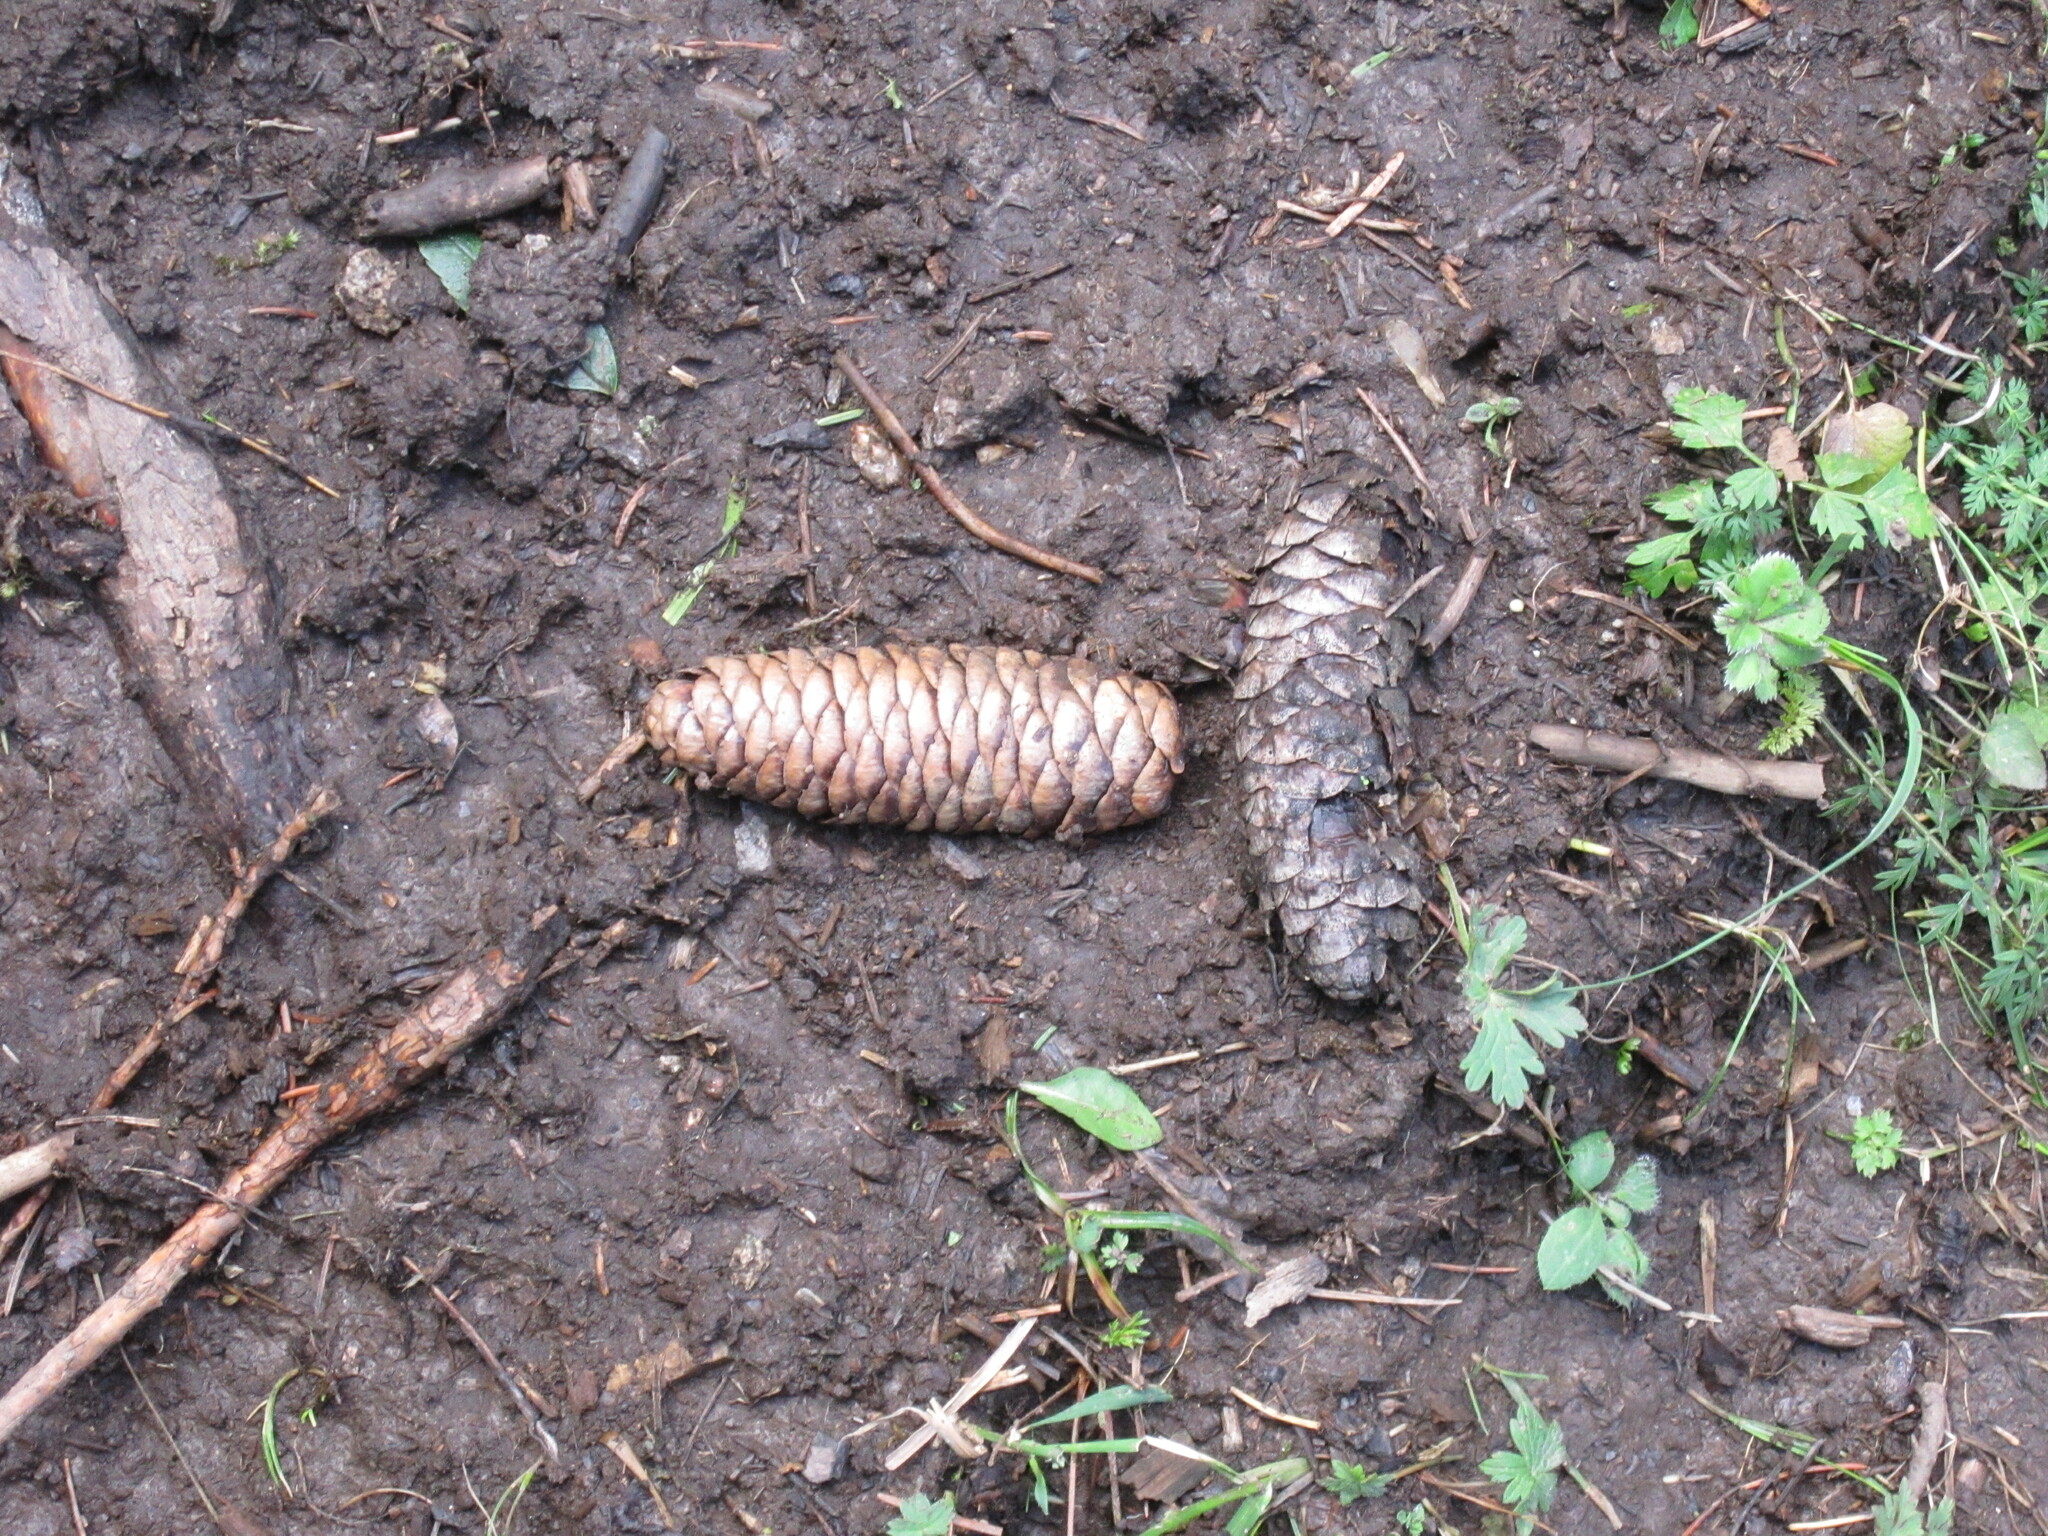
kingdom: Plantae
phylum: Tracheophyta
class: Pinopsida
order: Pinales
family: Pinaceae
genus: Picea
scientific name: Picea schrenkiana
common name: Asian spruce
